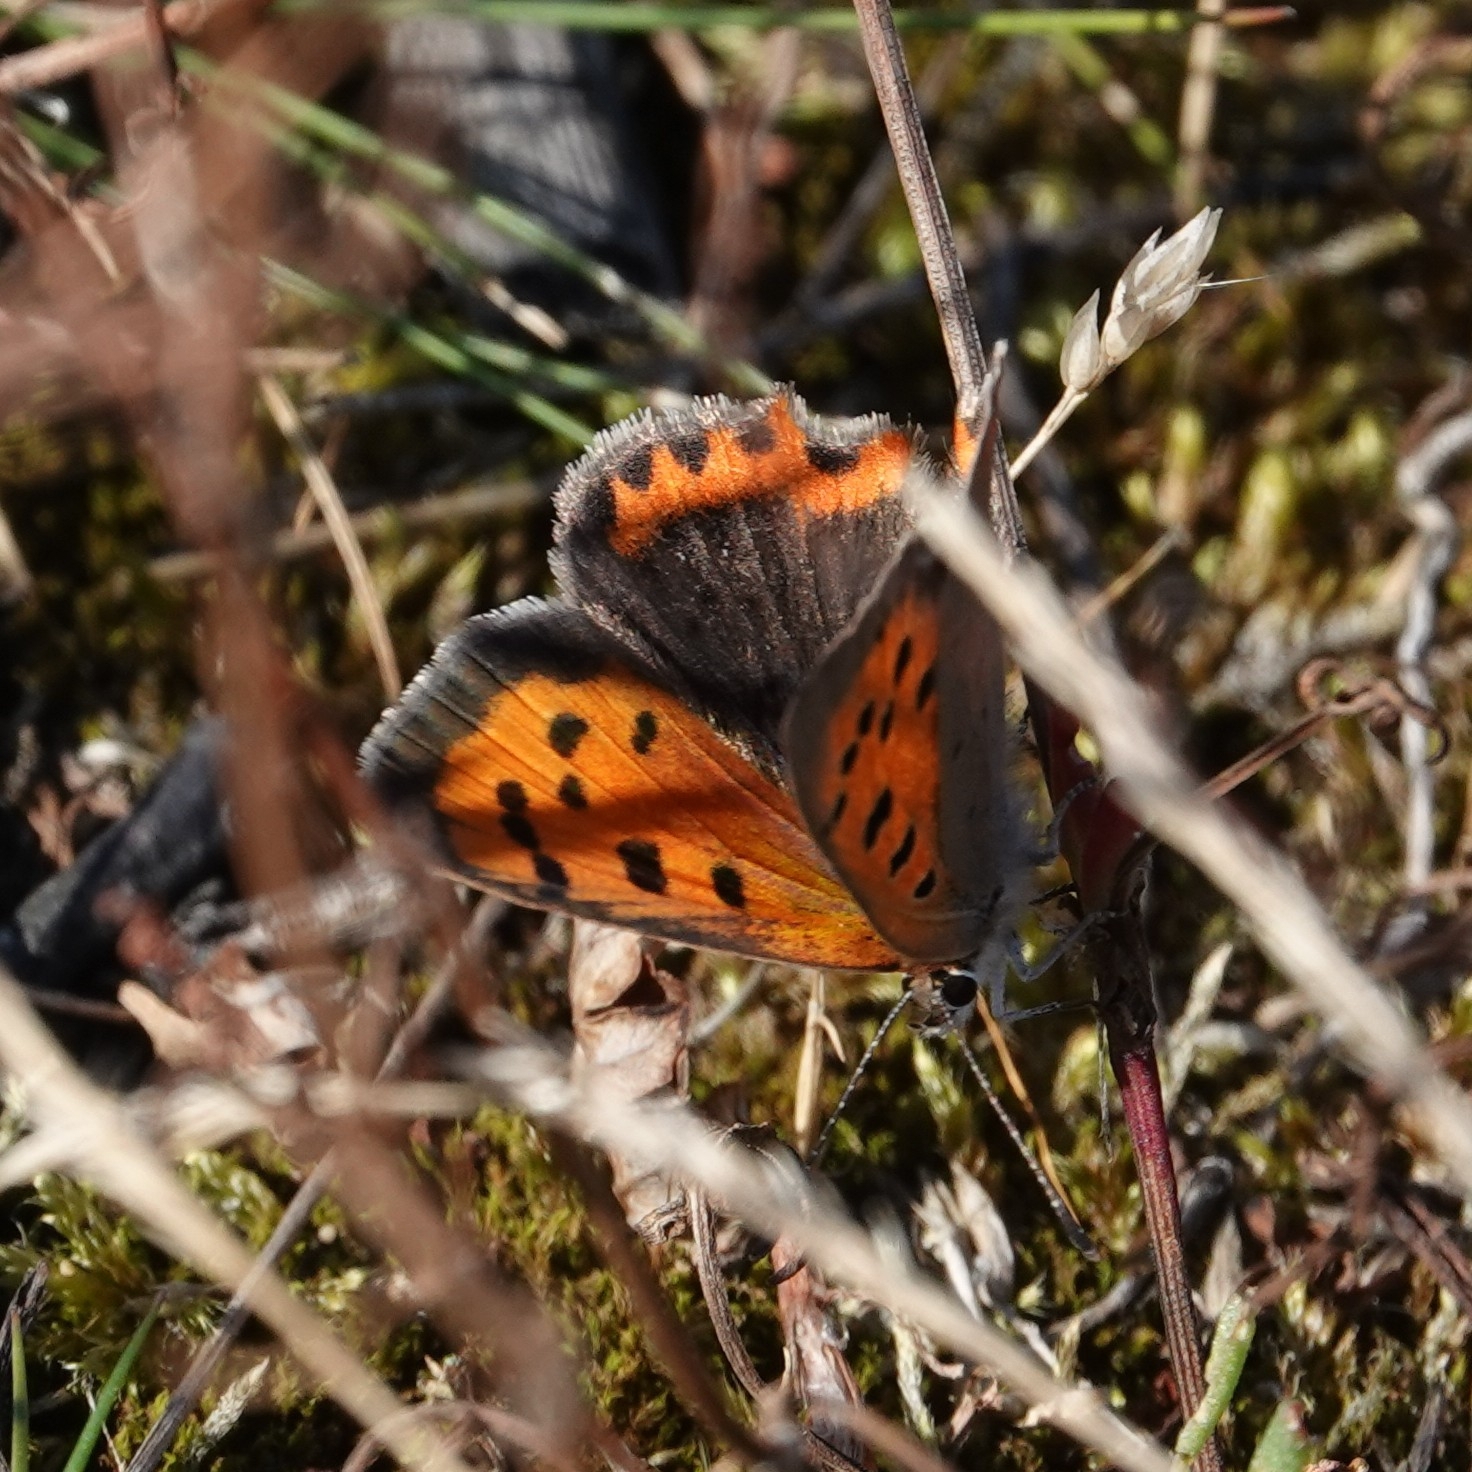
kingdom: Animalia
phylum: Arthropoda
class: Insecta
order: Lepidoptera
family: Lycaenidae
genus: Lycaena
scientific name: Lycaena phlaeas
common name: Small copper
